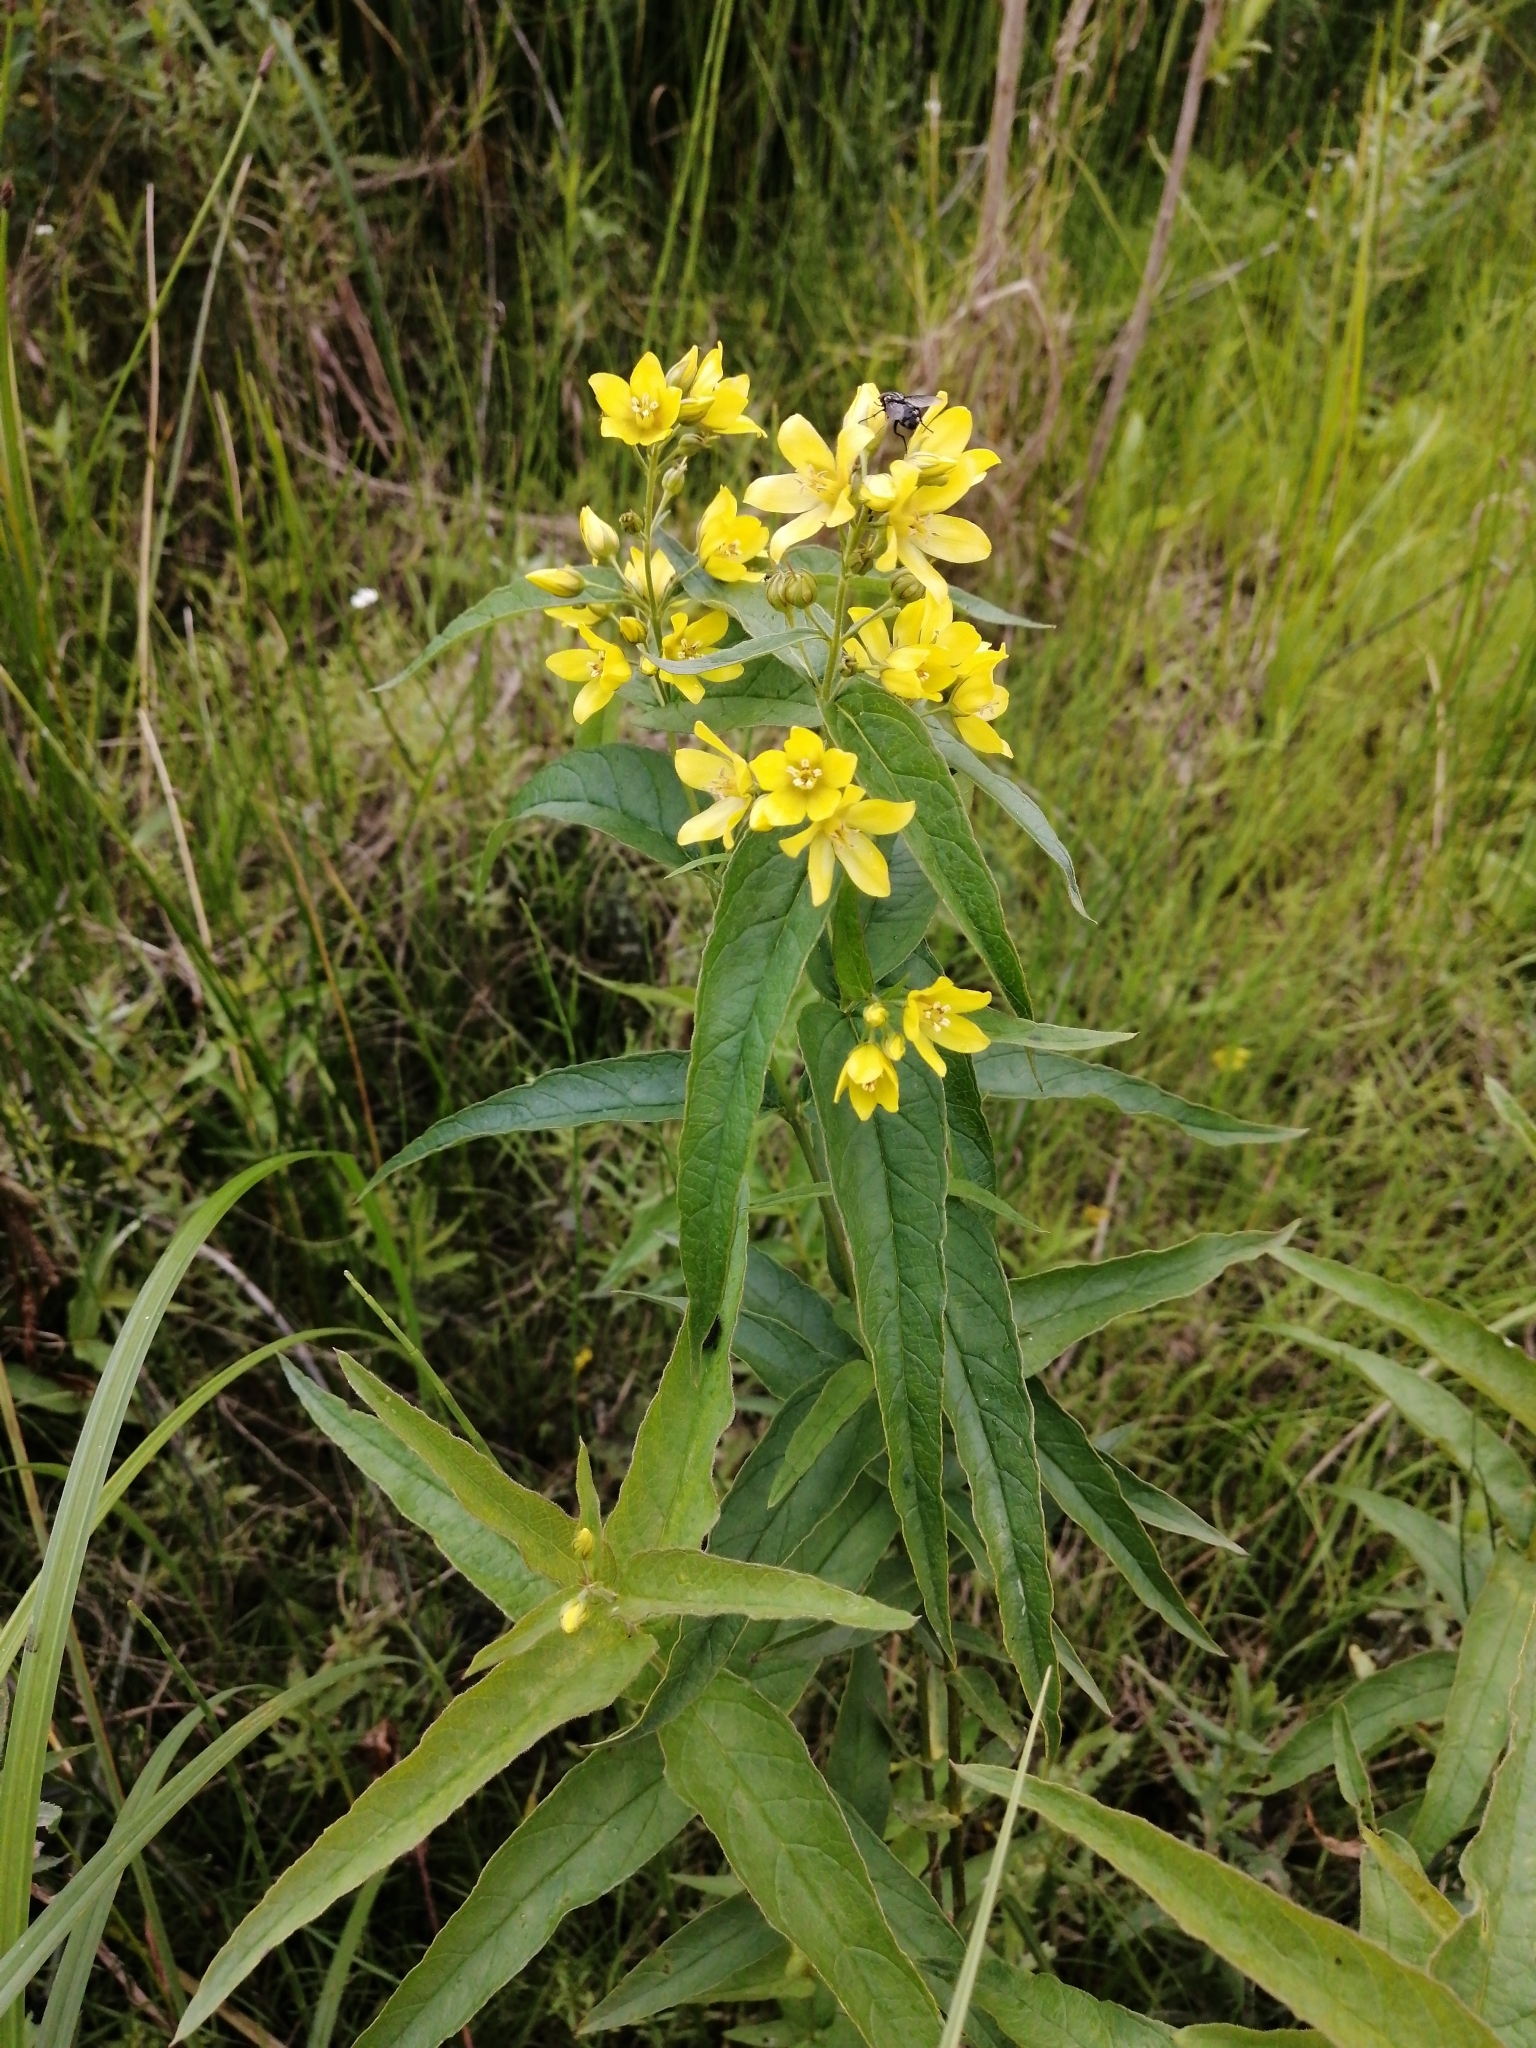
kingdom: Plantae
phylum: Tracheophyta
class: Magnoliopsida
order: Ericales
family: Primulaceae
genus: Lysimachia
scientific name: Lysimachia vulgaris
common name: Yellow loosestrife
